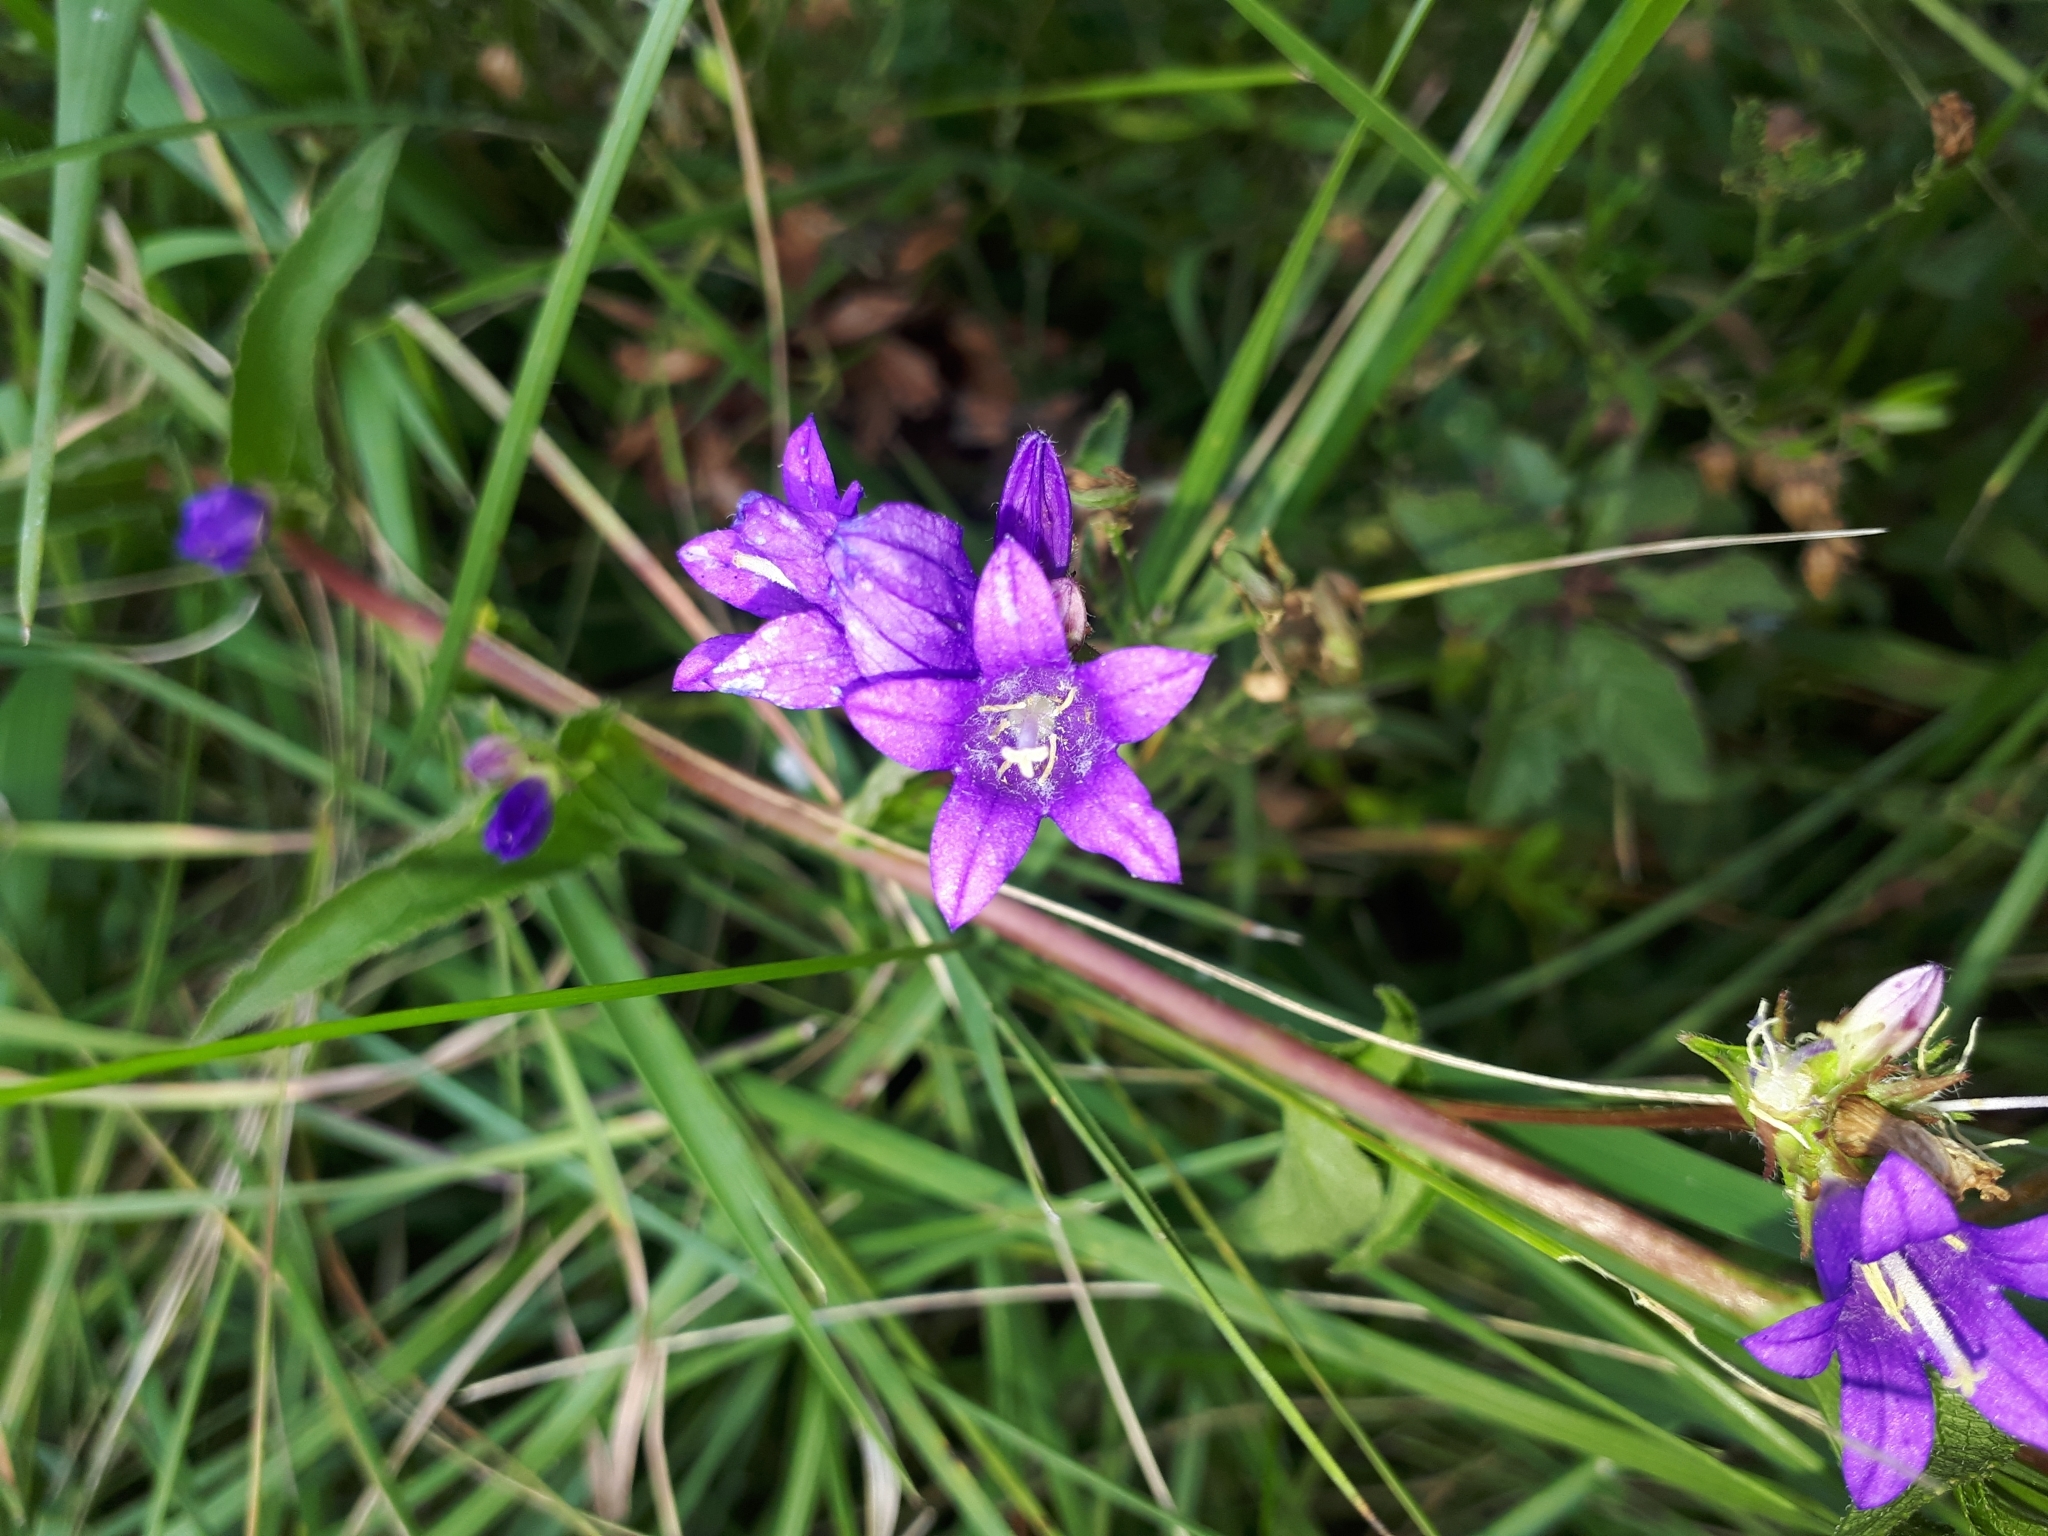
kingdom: Plantae
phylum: Tracheophyta
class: Magnoliopsida
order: Asterales
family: Campanulaceae
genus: Campanula
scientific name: Campanula glomerata
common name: Clustered bellflower
